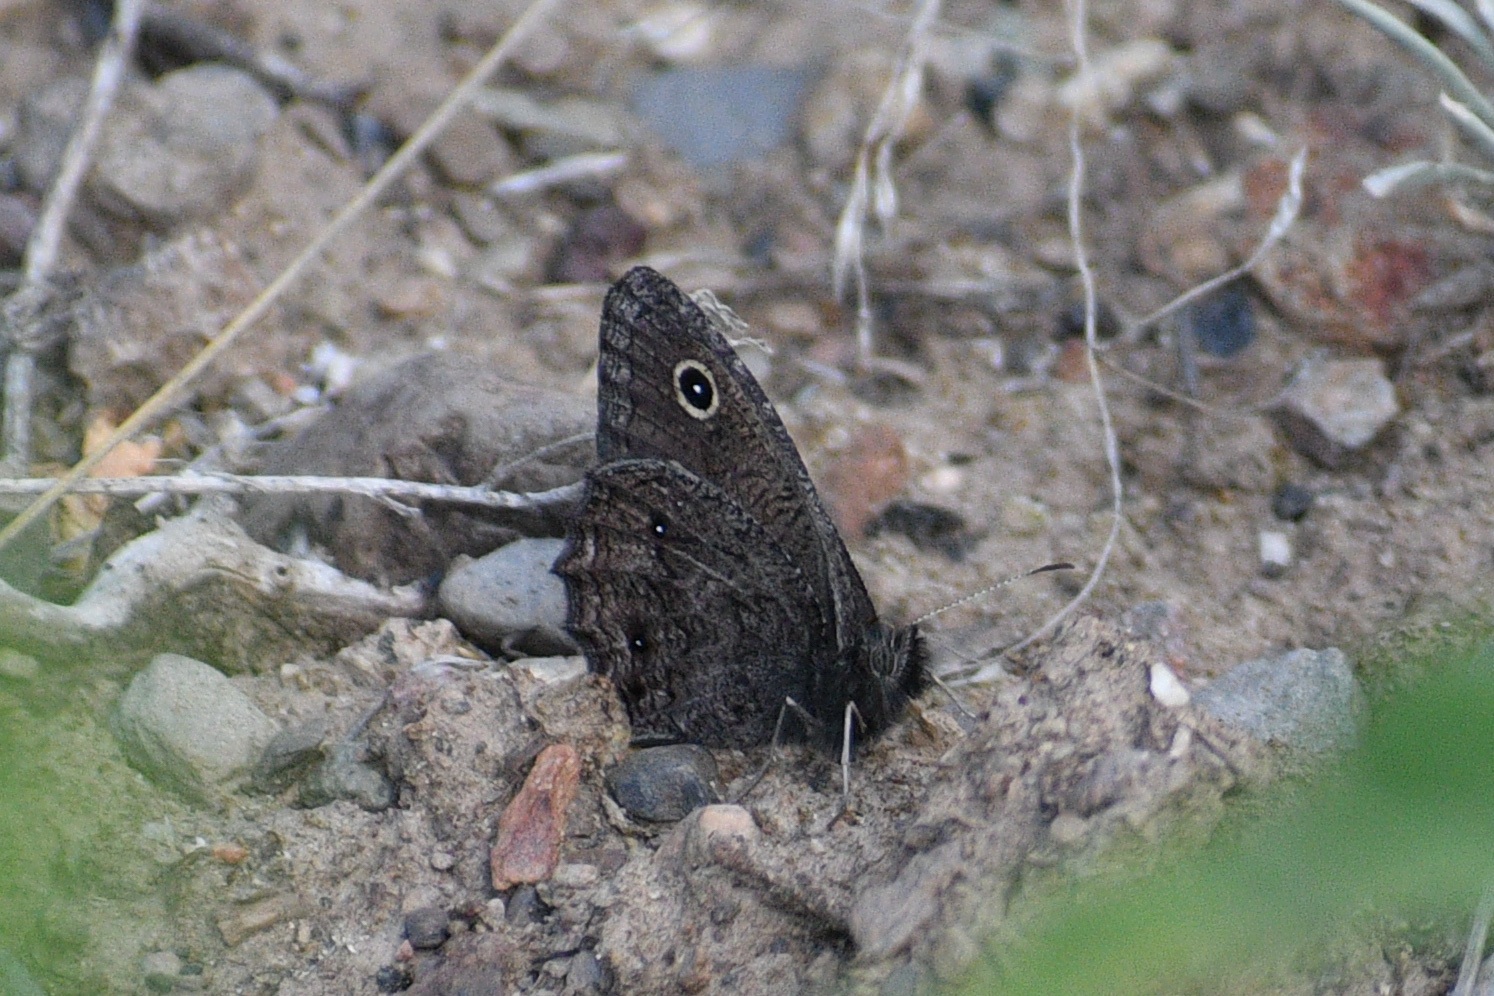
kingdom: Animalia
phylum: Arthropoda
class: Insecta
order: Lepidoptera
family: Nymphalidae
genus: Cercyonis
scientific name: Cercyonis oetus
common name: Small wood-nymph
